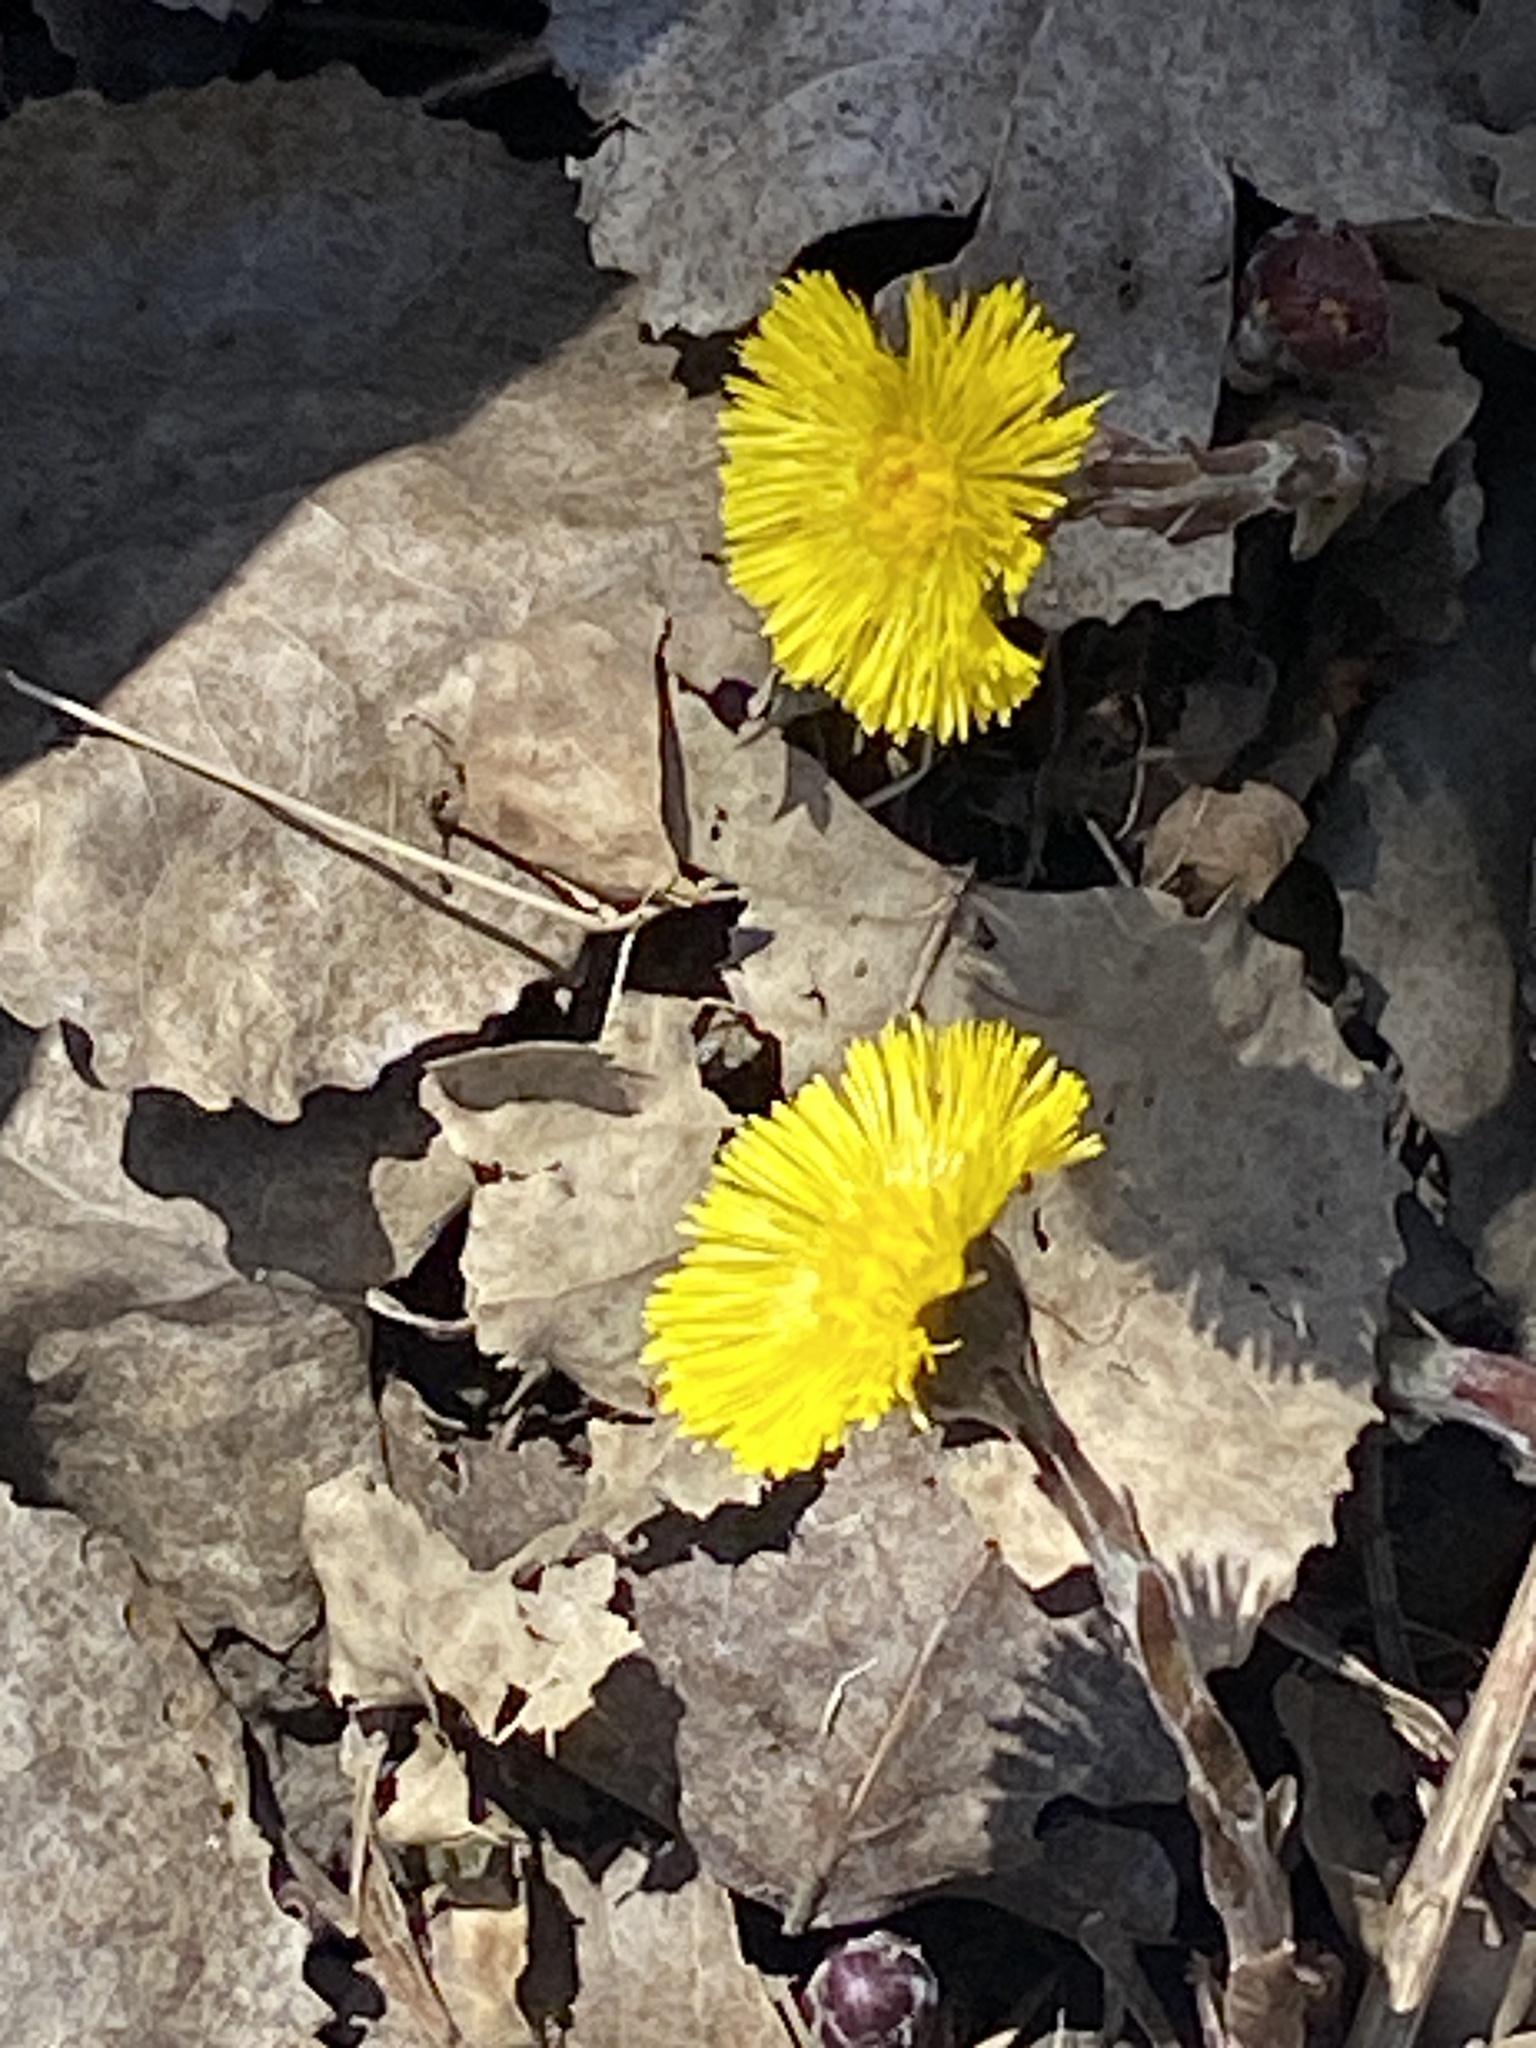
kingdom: Plantae
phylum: Tracheophyta
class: Magnoliopsida
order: Asterales
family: Asteraceae
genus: Tussilago
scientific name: Tussilago farfara
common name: Coltsfoot
